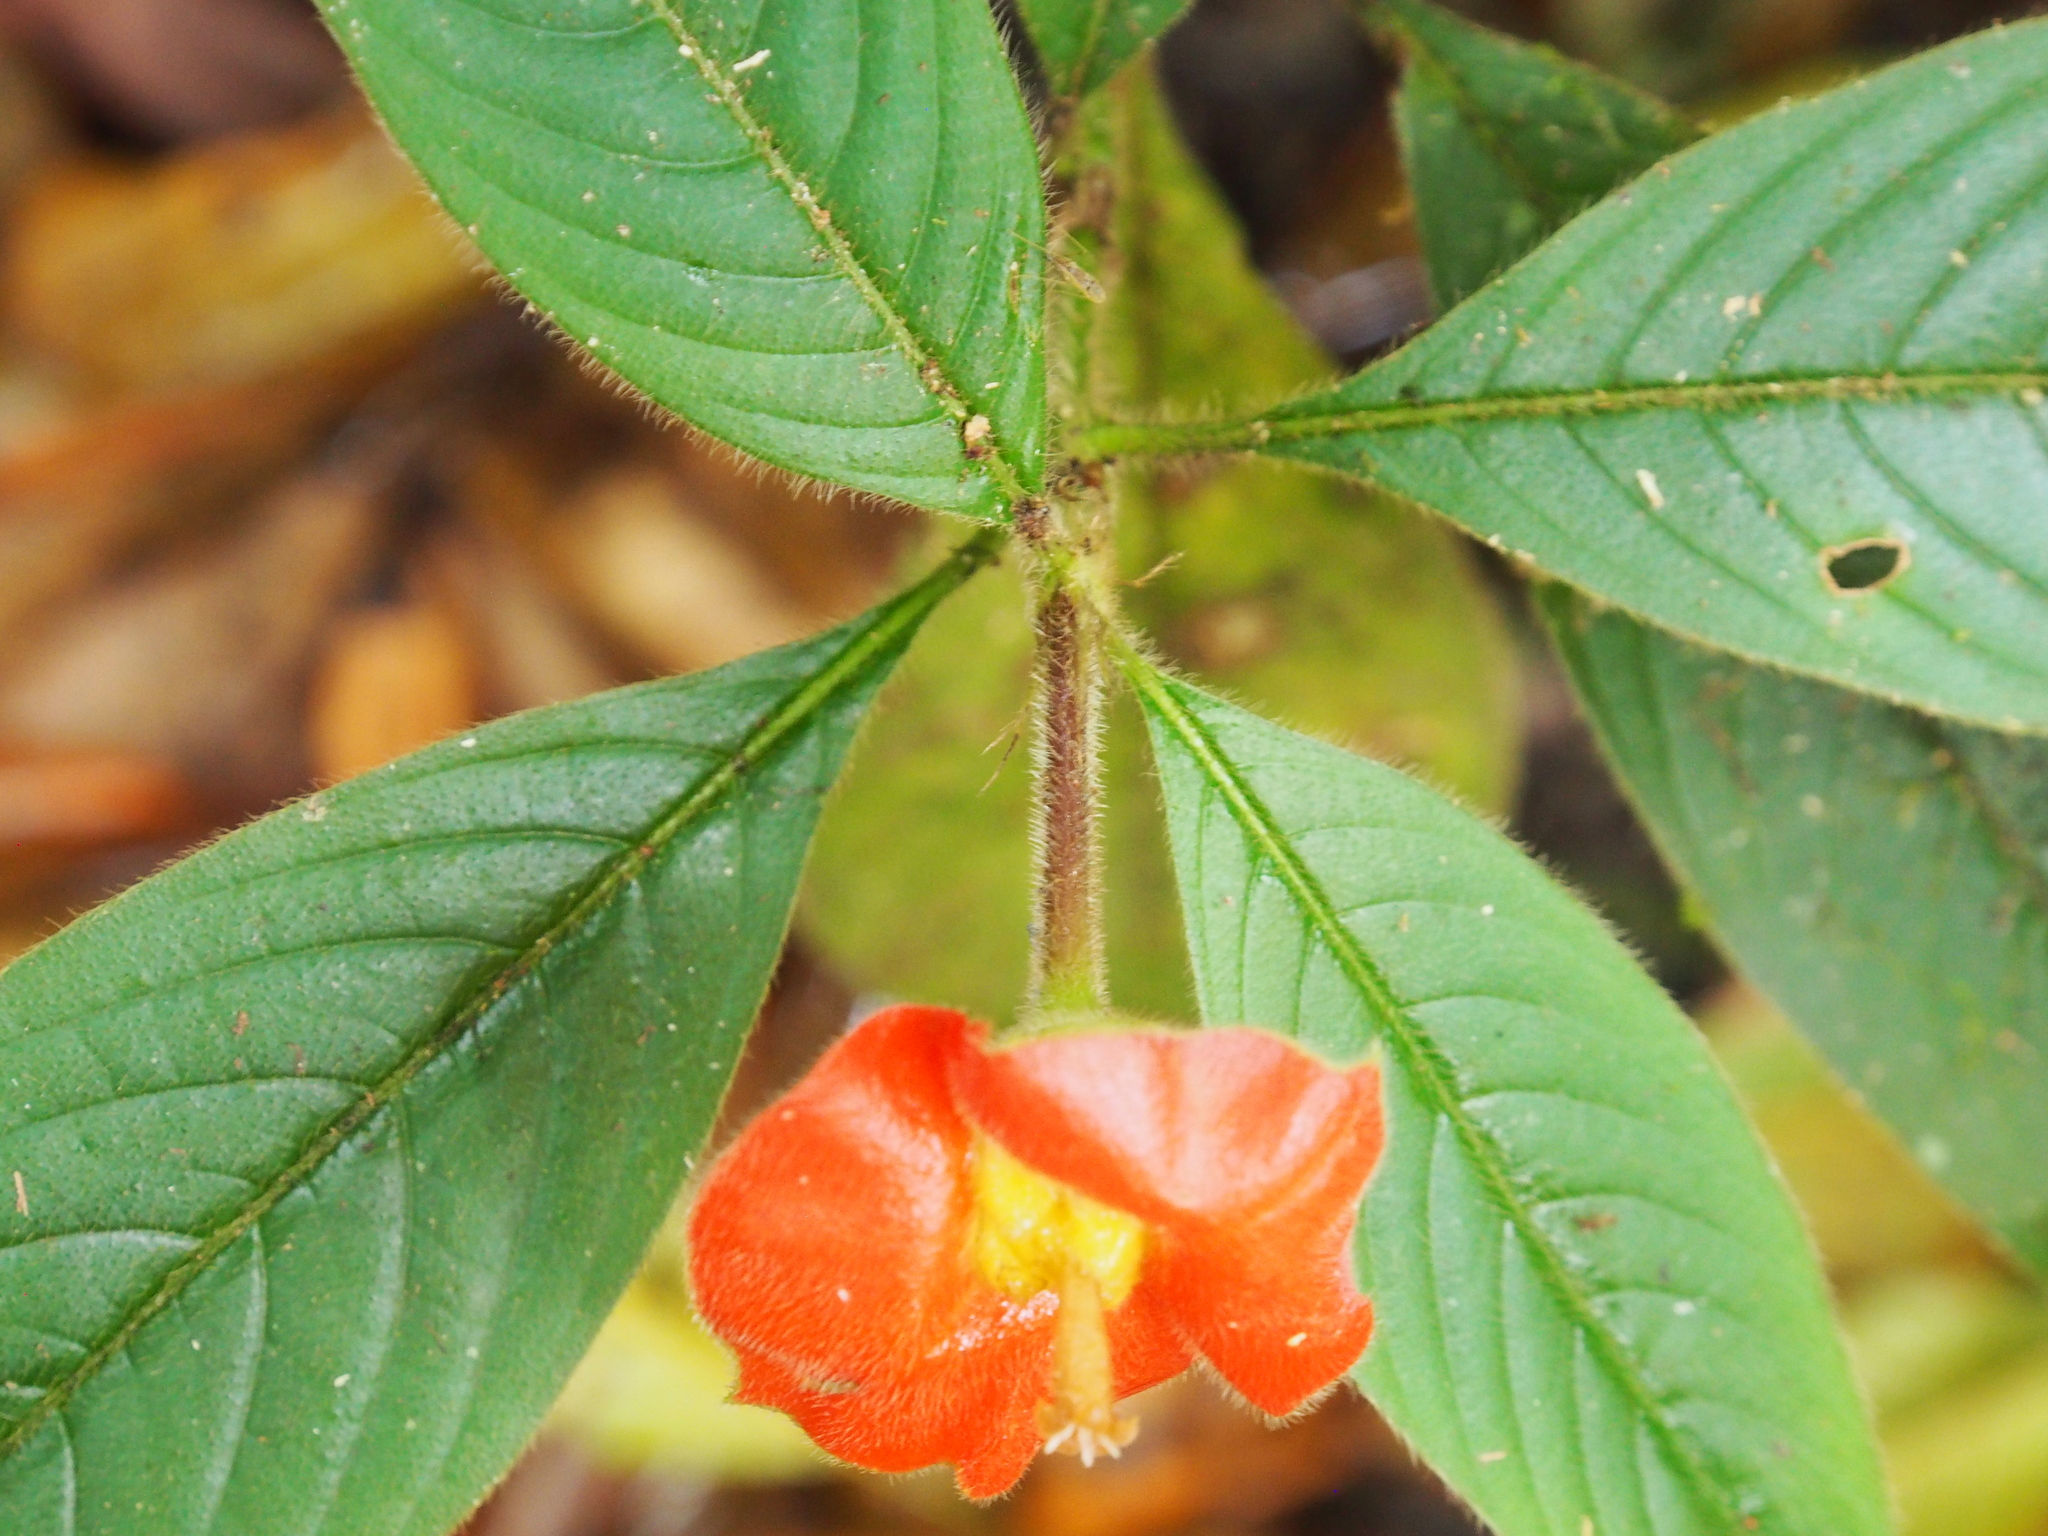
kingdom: Plantae
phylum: Tracheophyta
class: Magnoliopsida
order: Gentianales
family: Rubiaceae
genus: Palicourea
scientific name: Palicourea tomentosa
